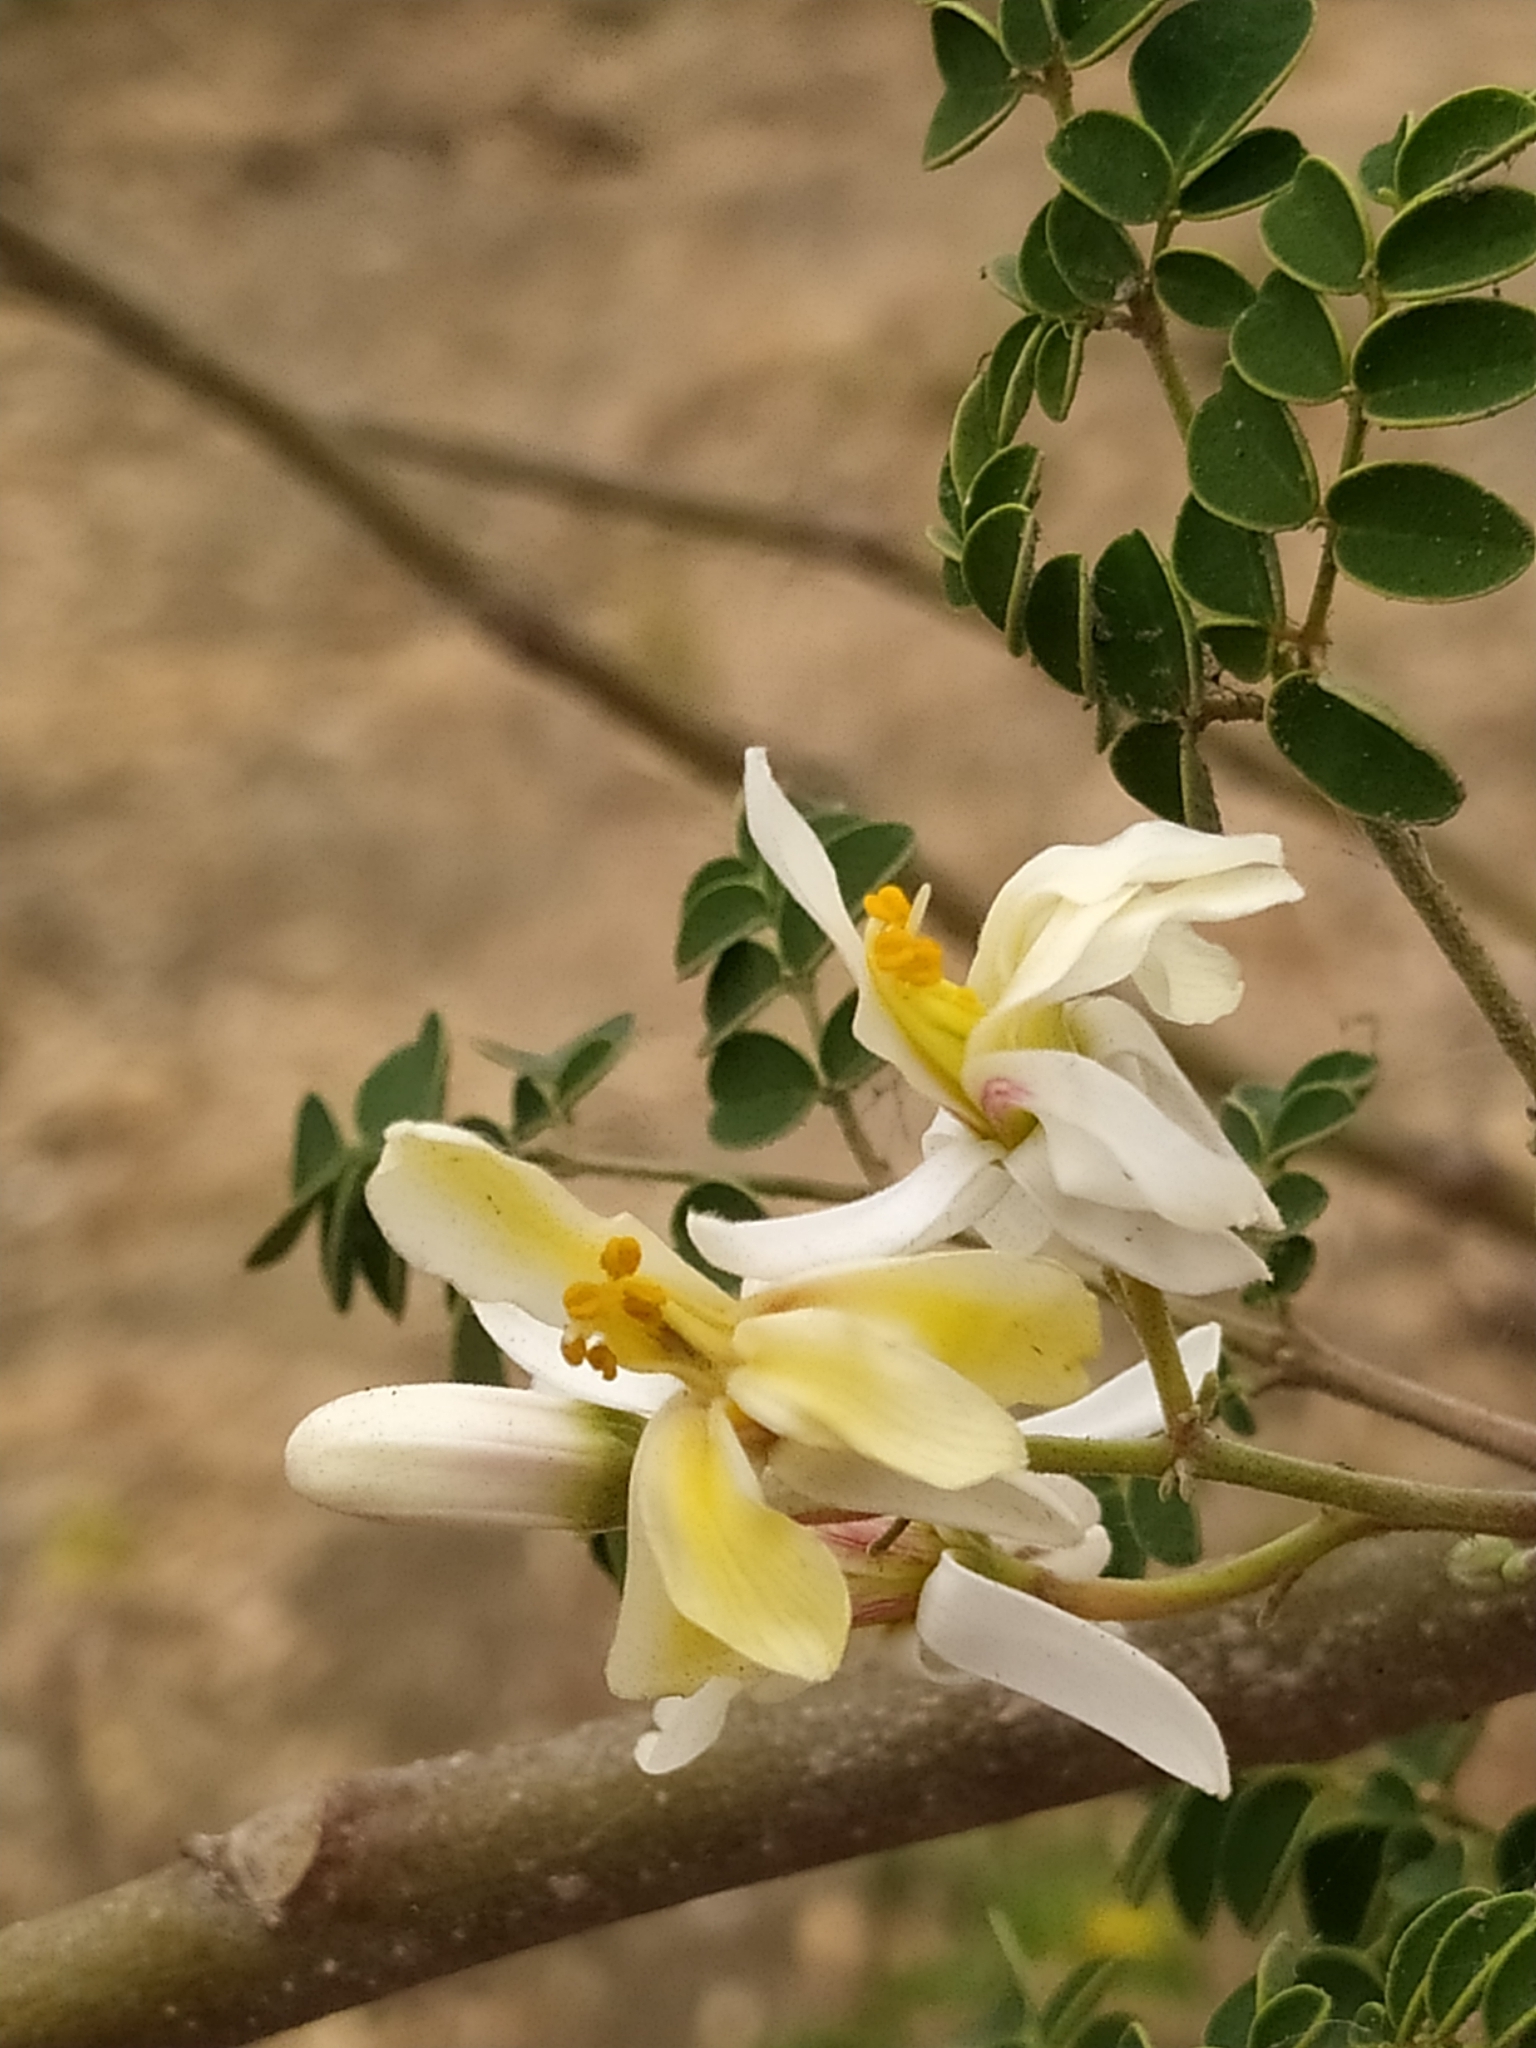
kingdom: Plantae
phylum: Tracheophyta
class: Magnoliopsida
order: Brassicales
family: Moringaceae
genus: Moringa
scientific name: Moringa oleifera
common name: Horseradish-tree
